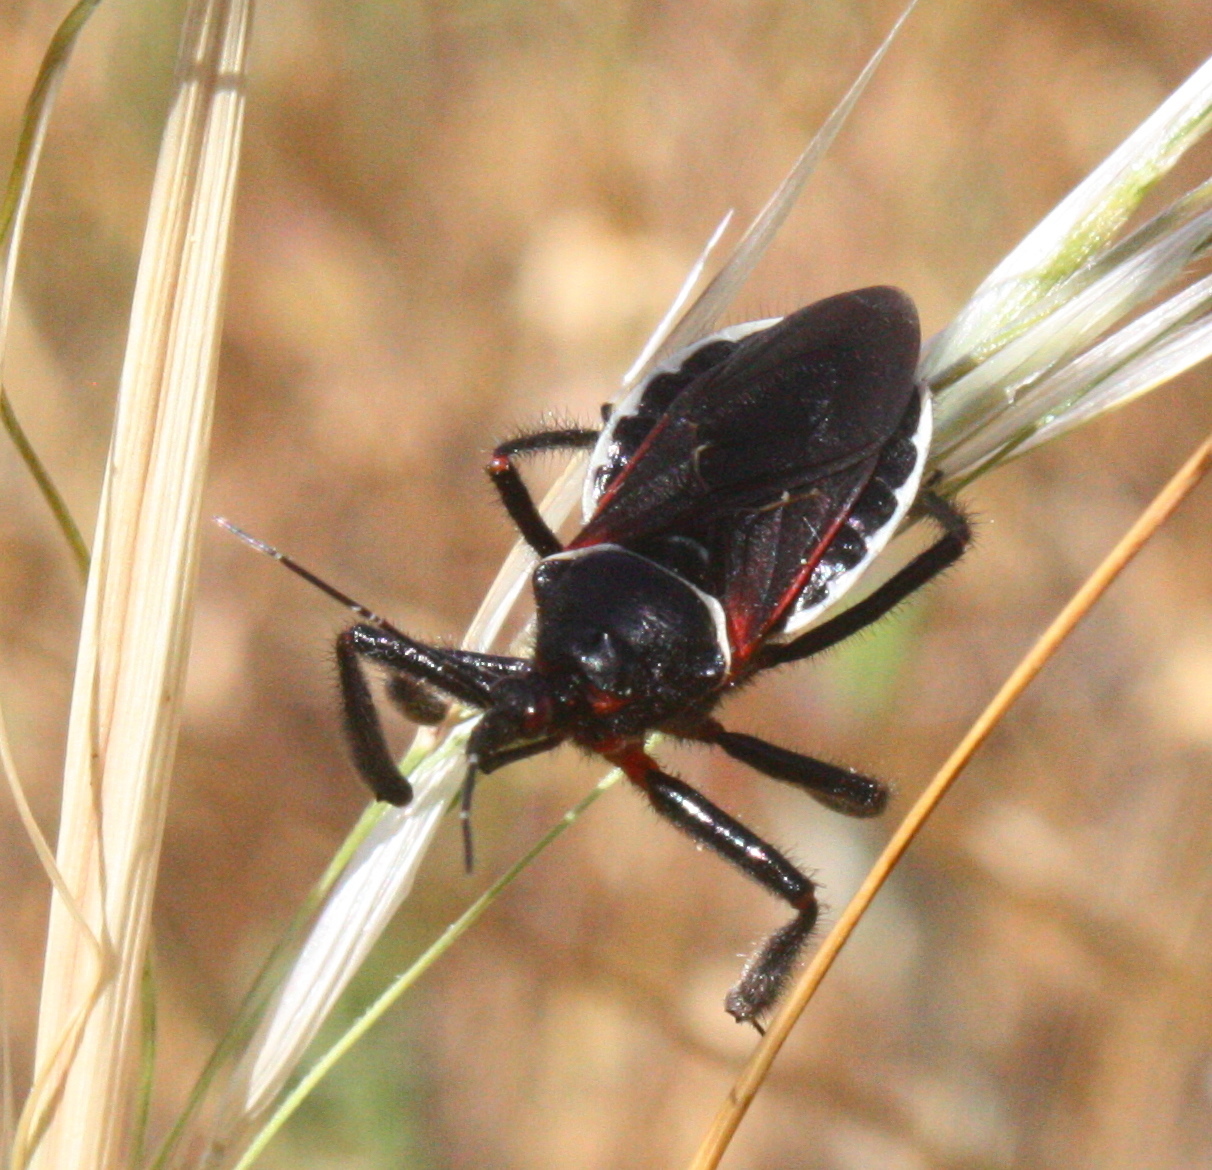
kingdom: Animalia
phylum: Arthropoda
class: Insecta
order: Hemiptera
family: Reduviidae
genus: Apiomerus
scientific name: Apiomerus californicus
